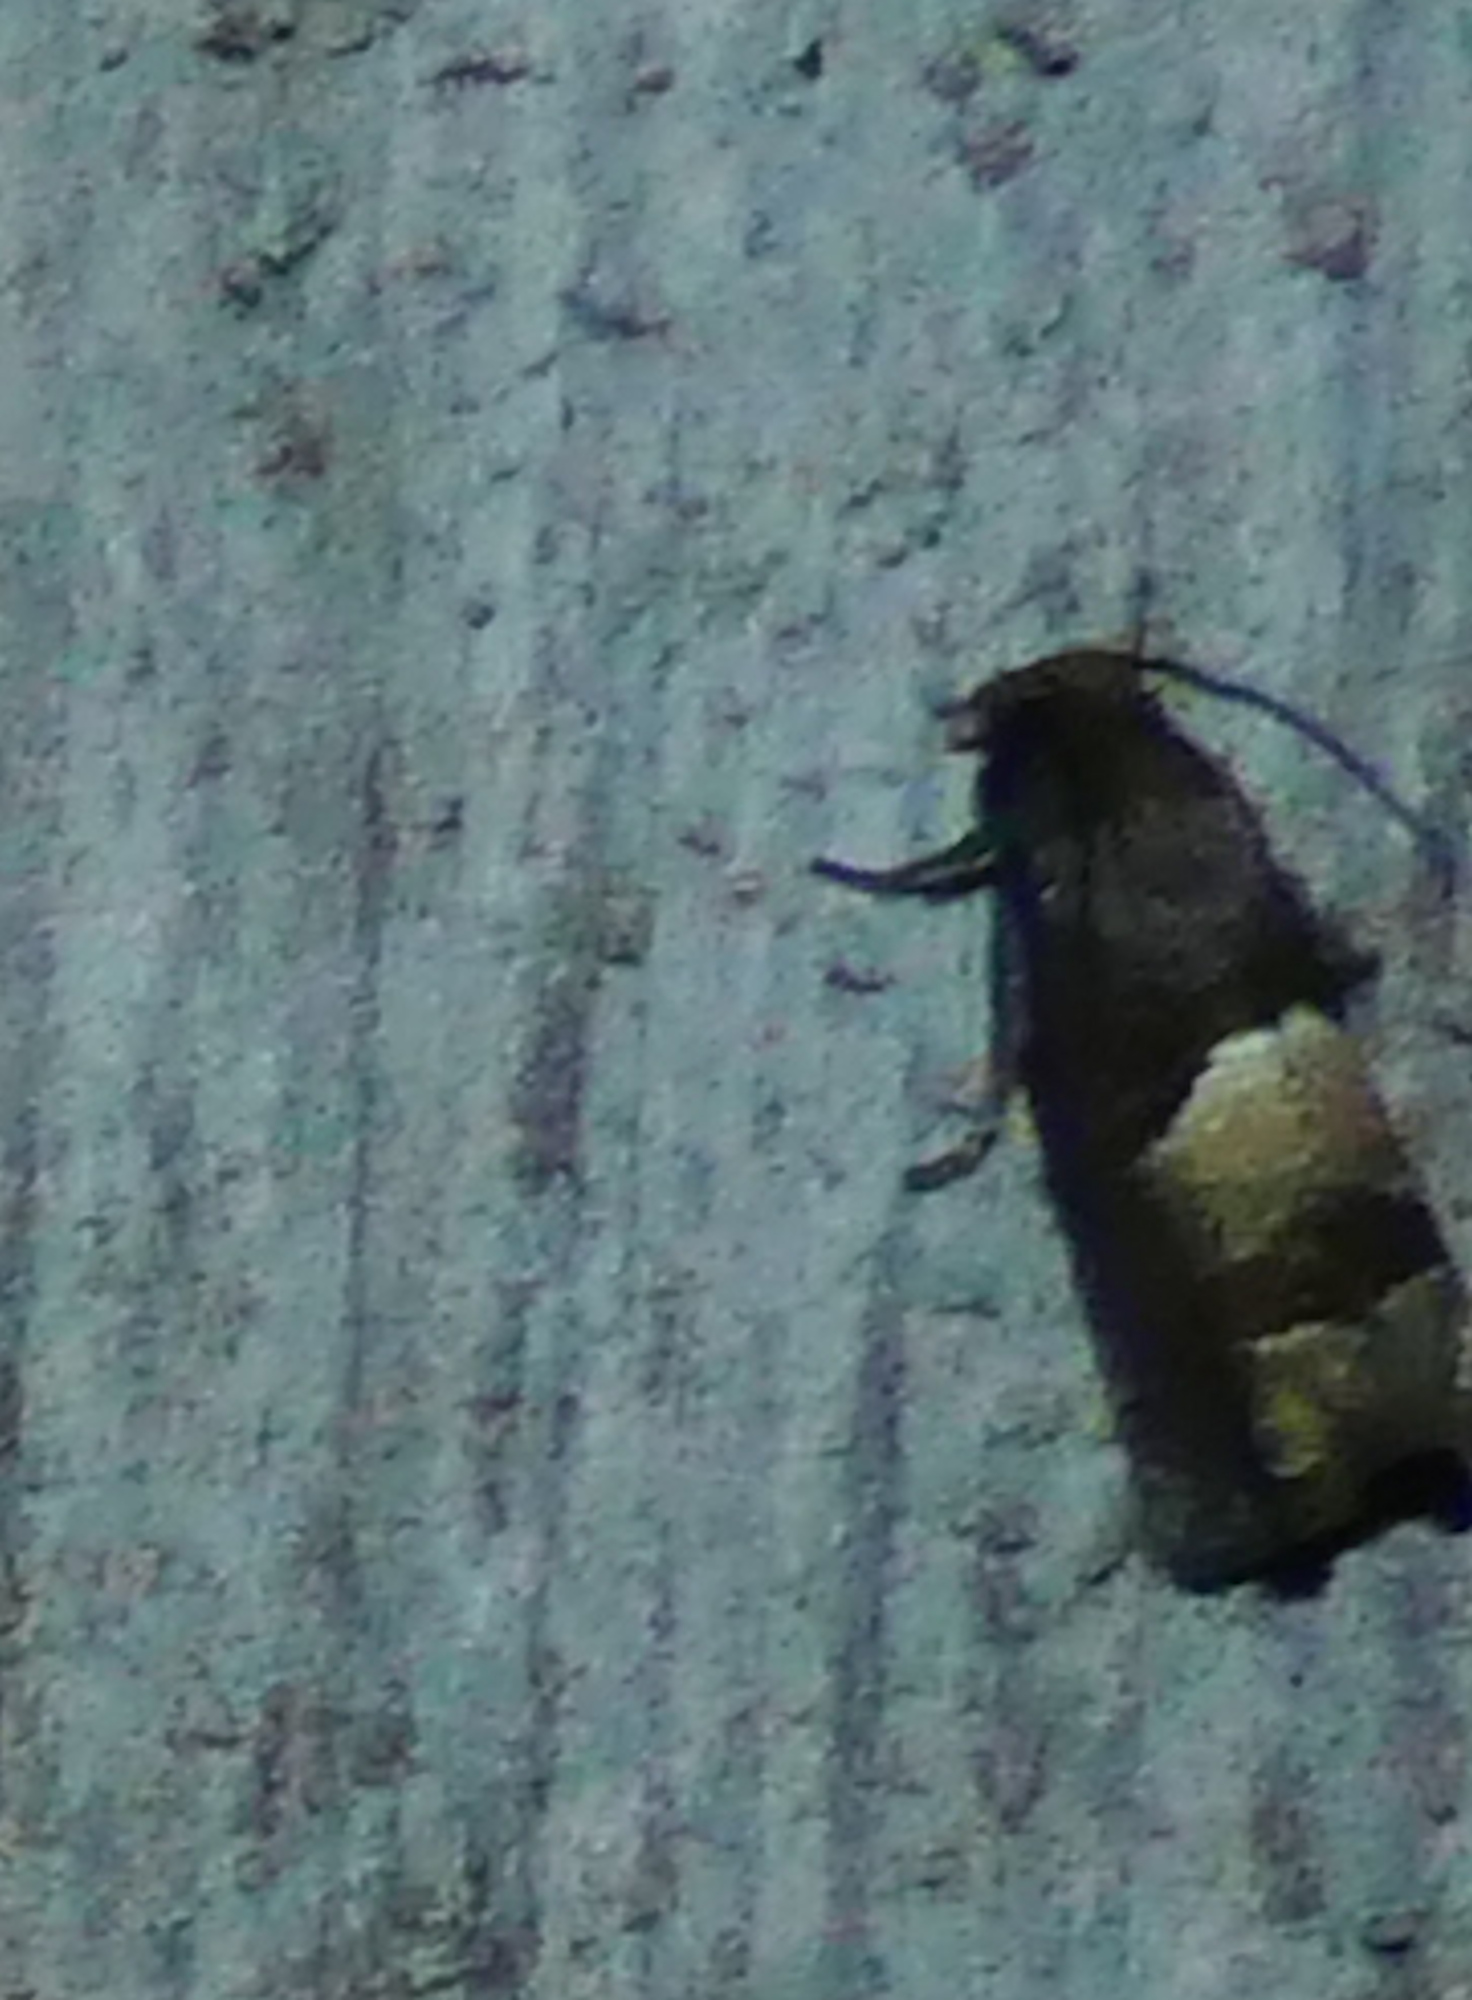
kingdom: Animalia
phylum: Arthropoda
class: Insecta
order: Lepidoptera
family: Tortricidae
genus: Epiblema
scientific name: Epiblema boxcana
